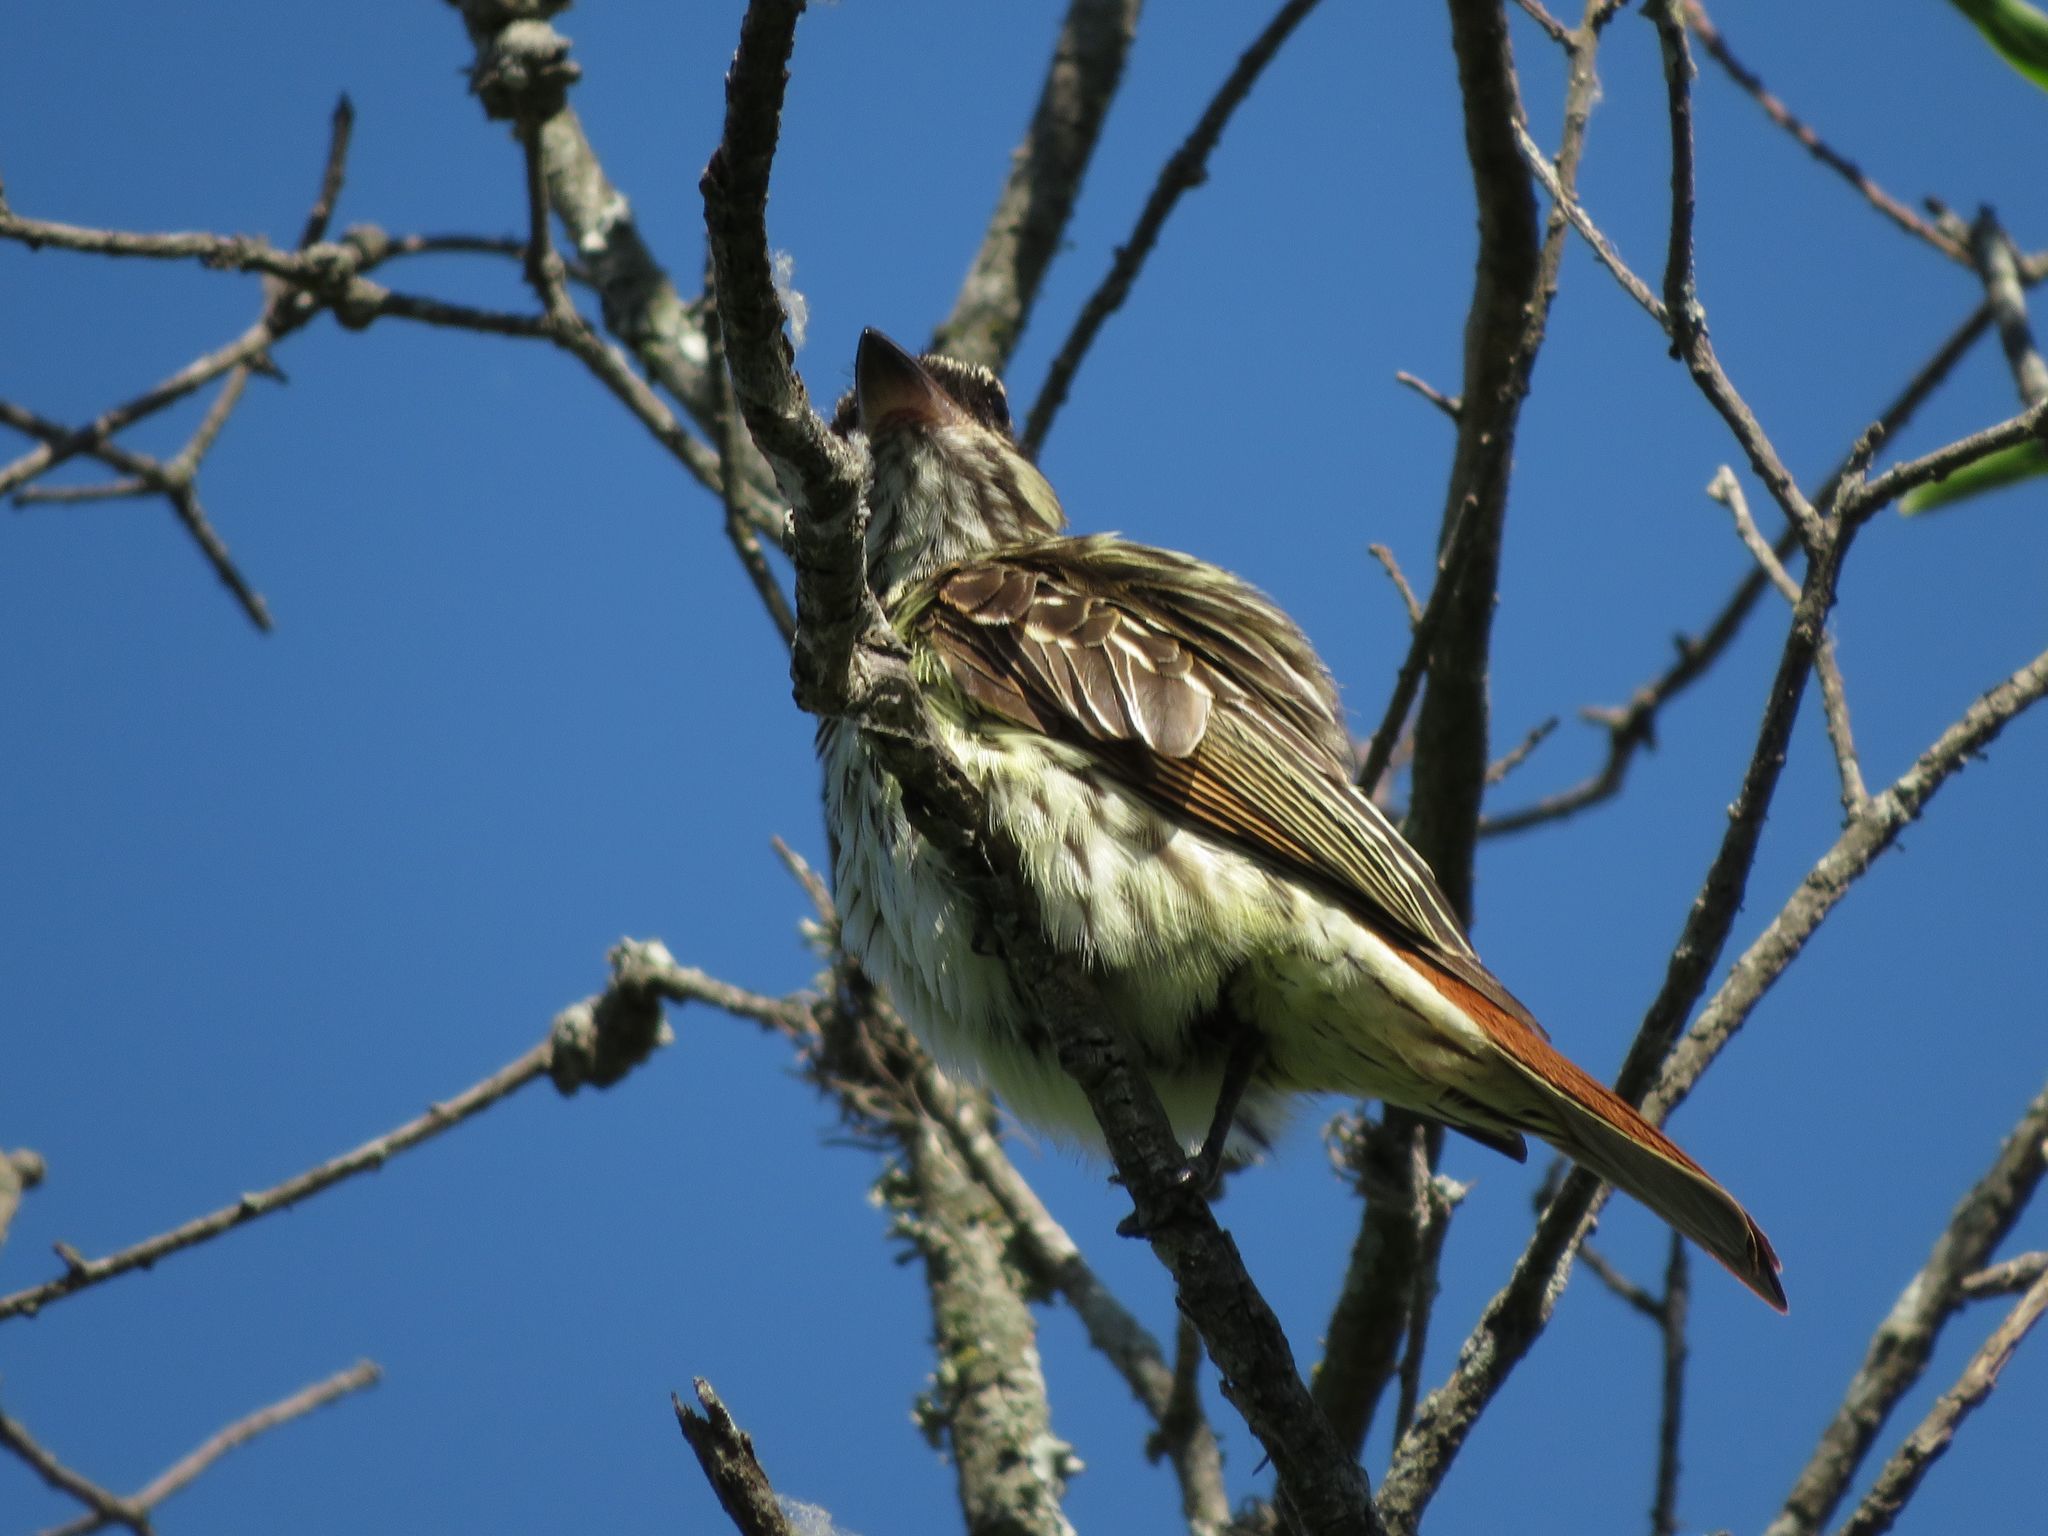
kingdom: Animalia
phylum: Chordata
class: Aves
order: Passeriformes
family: Tyrannidae
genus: Myiodynastes
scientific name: Myiodynastes maculatus
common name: Streaked flycatcher
